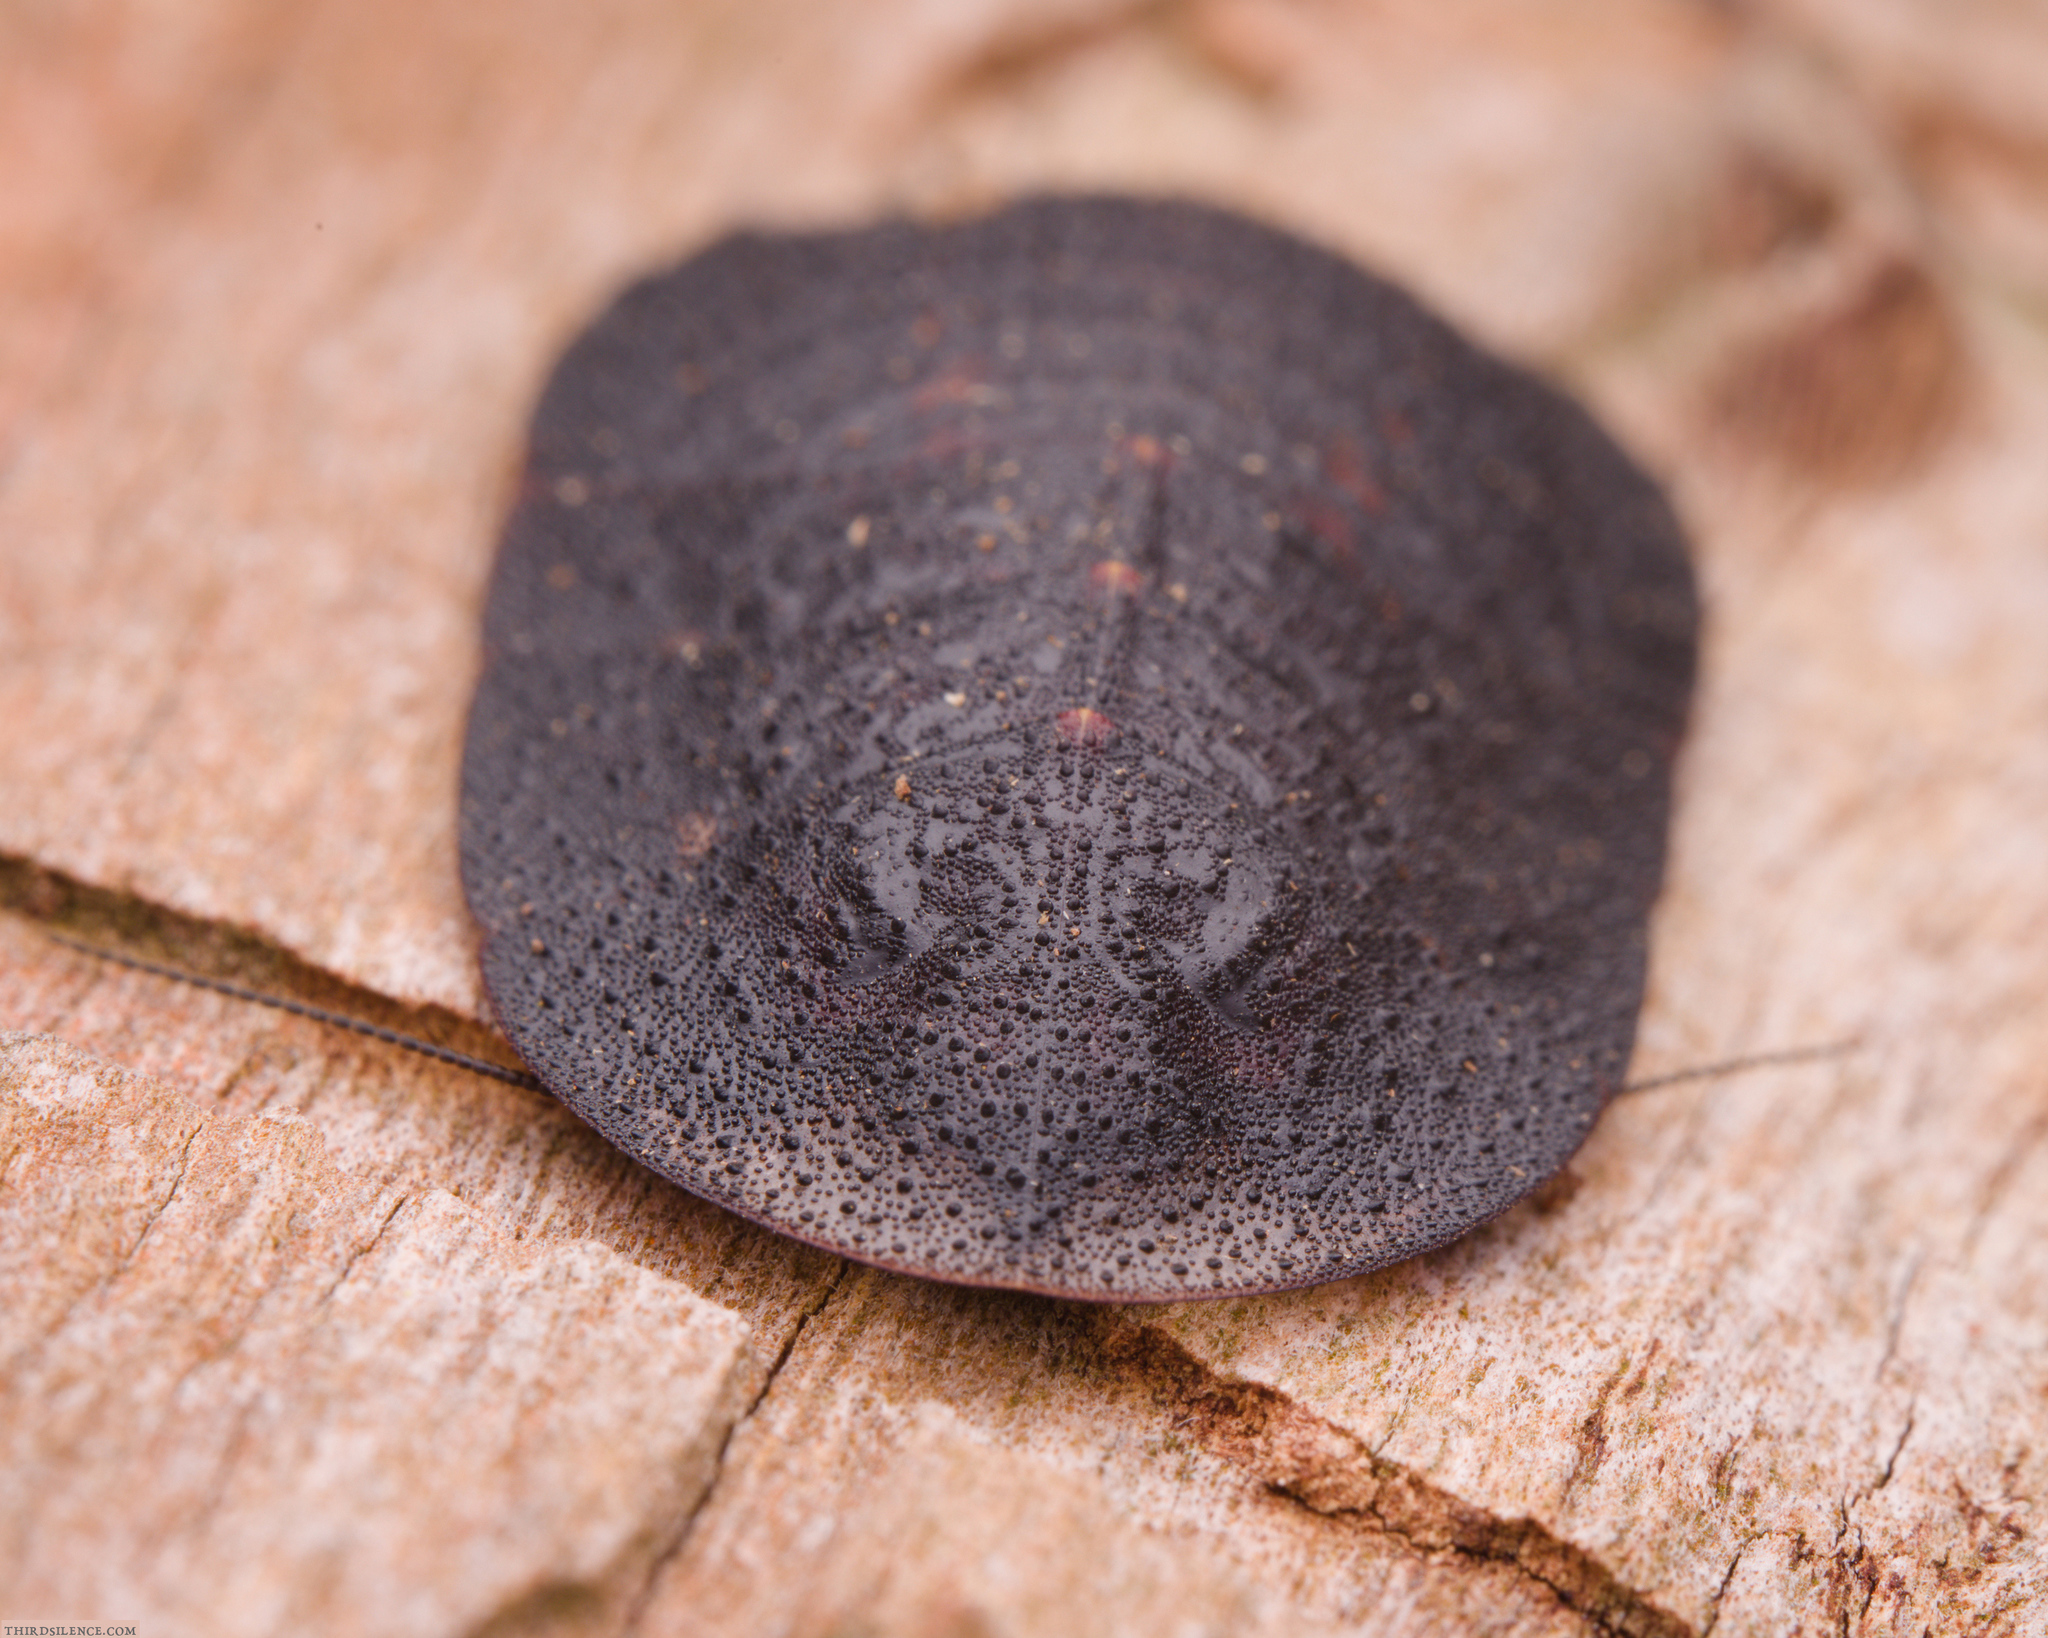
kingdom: Animalia
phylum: Arthropoda
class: Insecta
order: Blattodea
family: Blaberidae
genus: Laxta
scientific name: Laxta granicollis
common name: Bark cockroach
